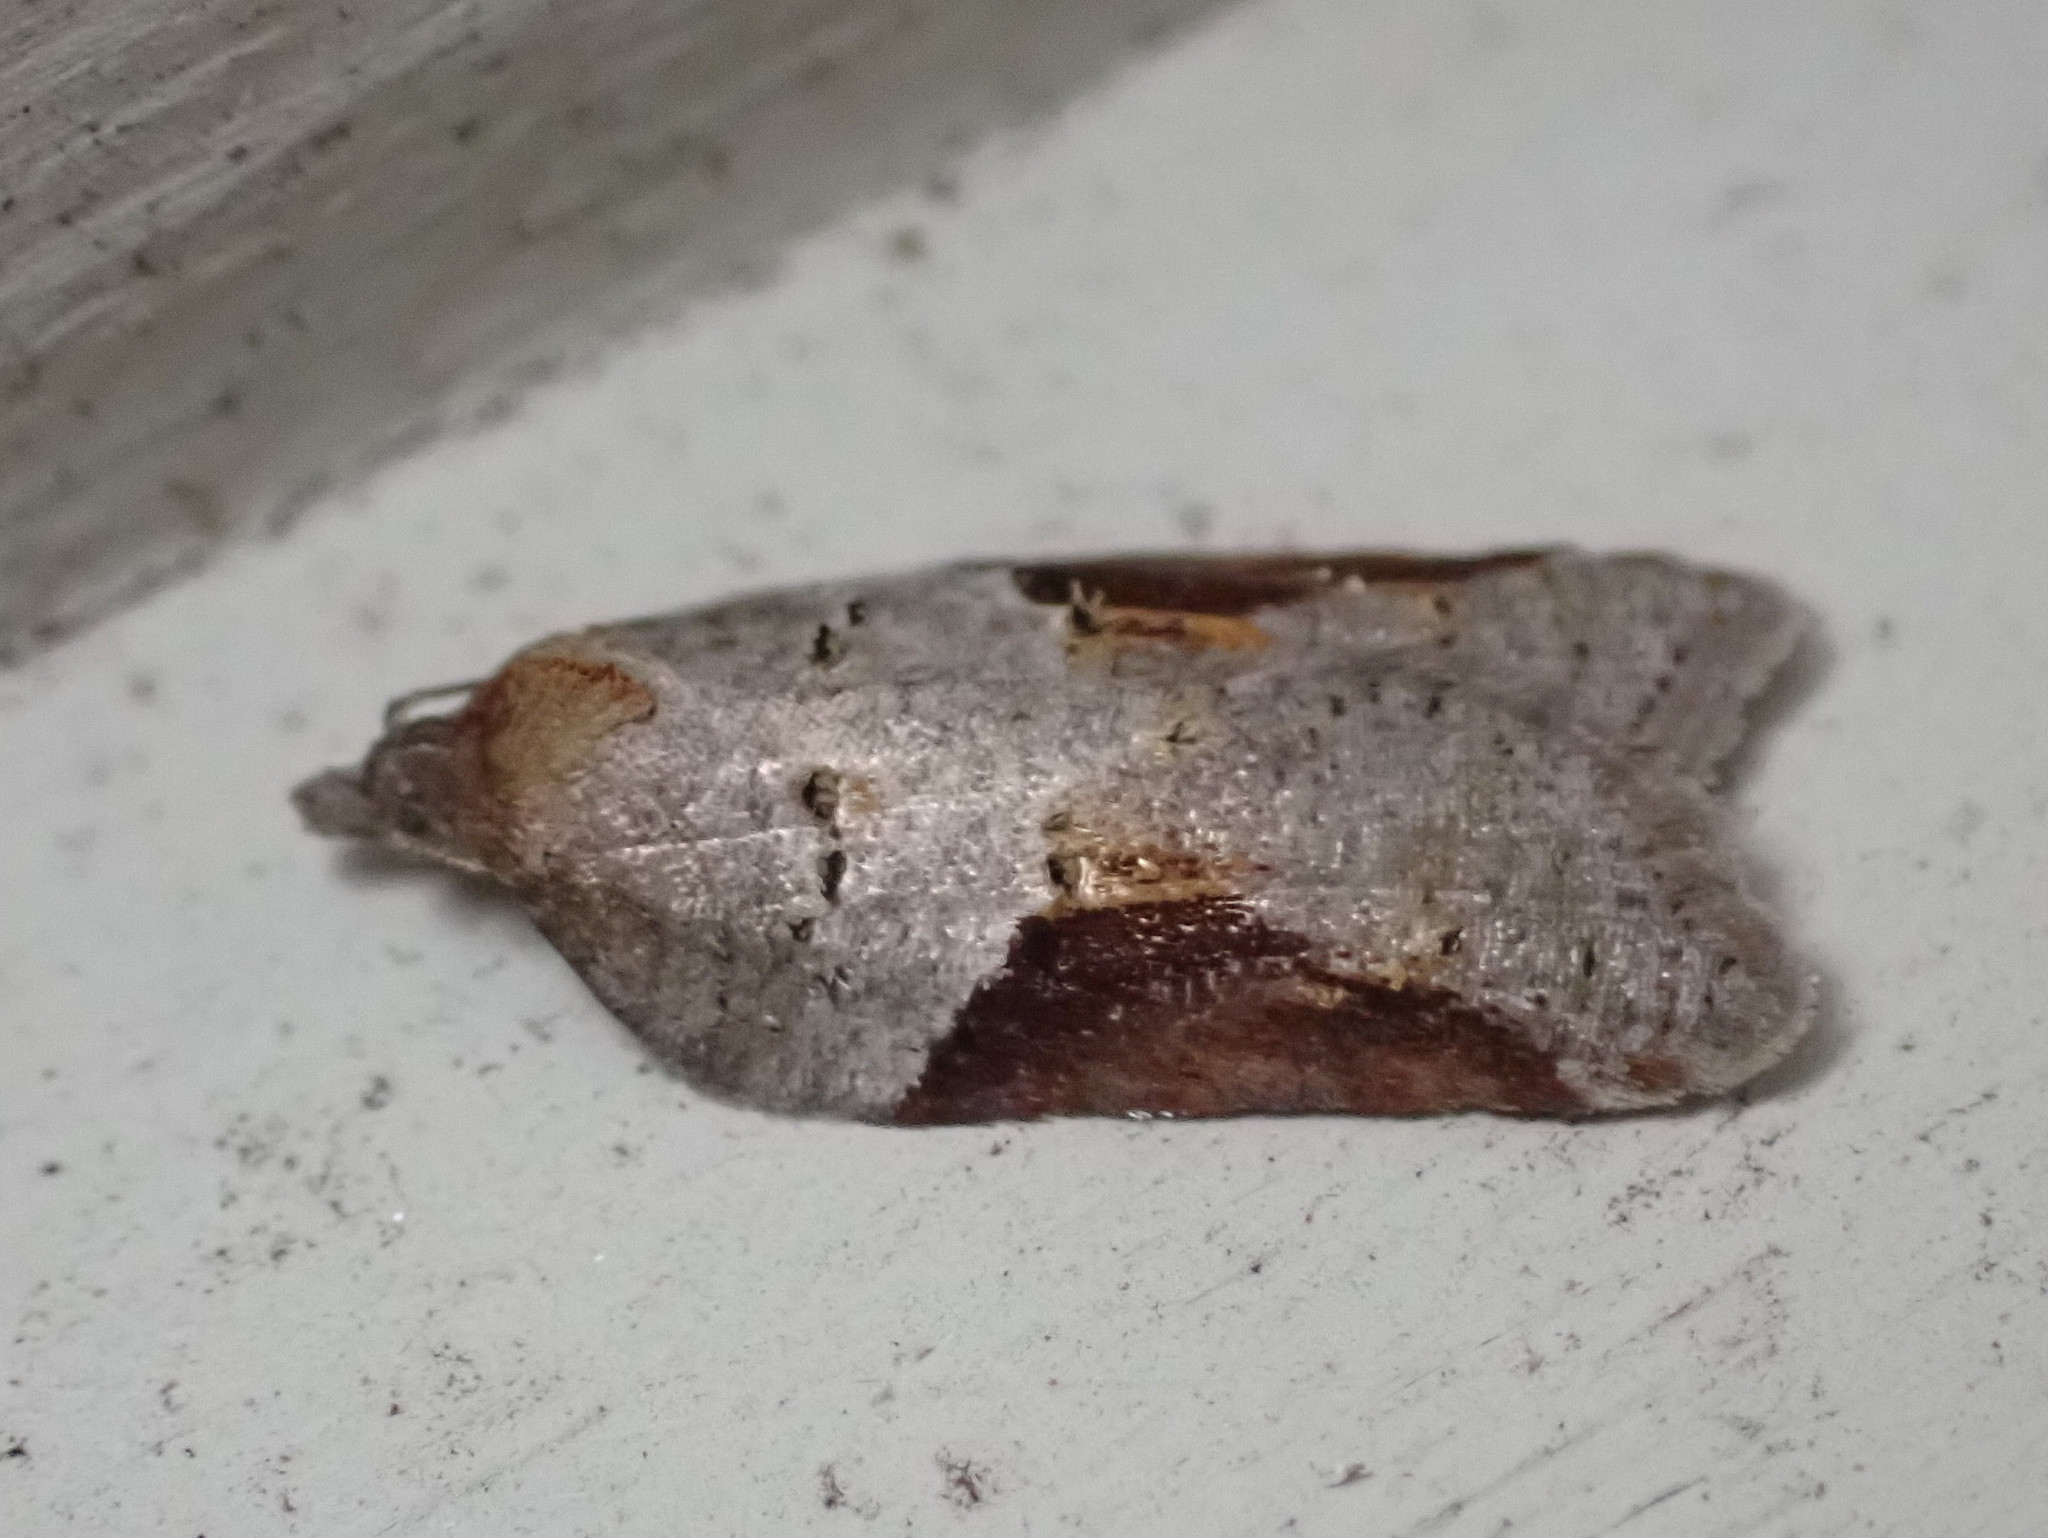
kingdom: Animalia
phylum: Arthropoda
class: Insecta
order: Lepidoptera
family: Tortricidae
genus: Acleris
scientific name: Acleris macdunnoughi
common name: Macdunnough's acleris
